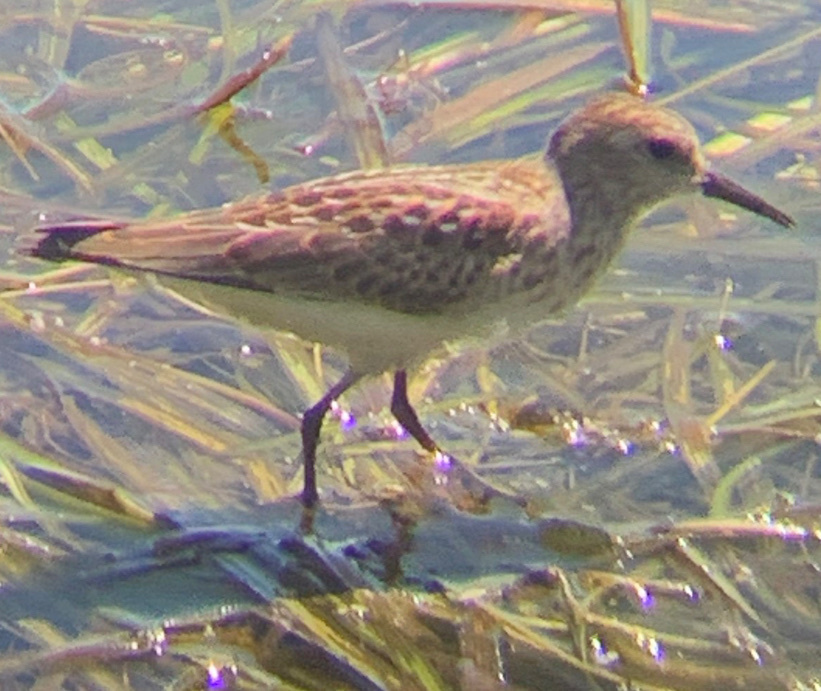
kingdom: Animalia
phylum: Chordata
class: Aves
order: Charadriiformes
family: Scolopacidae
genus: Calidris
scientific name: Calidris minutilla
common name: Least sandpiper
